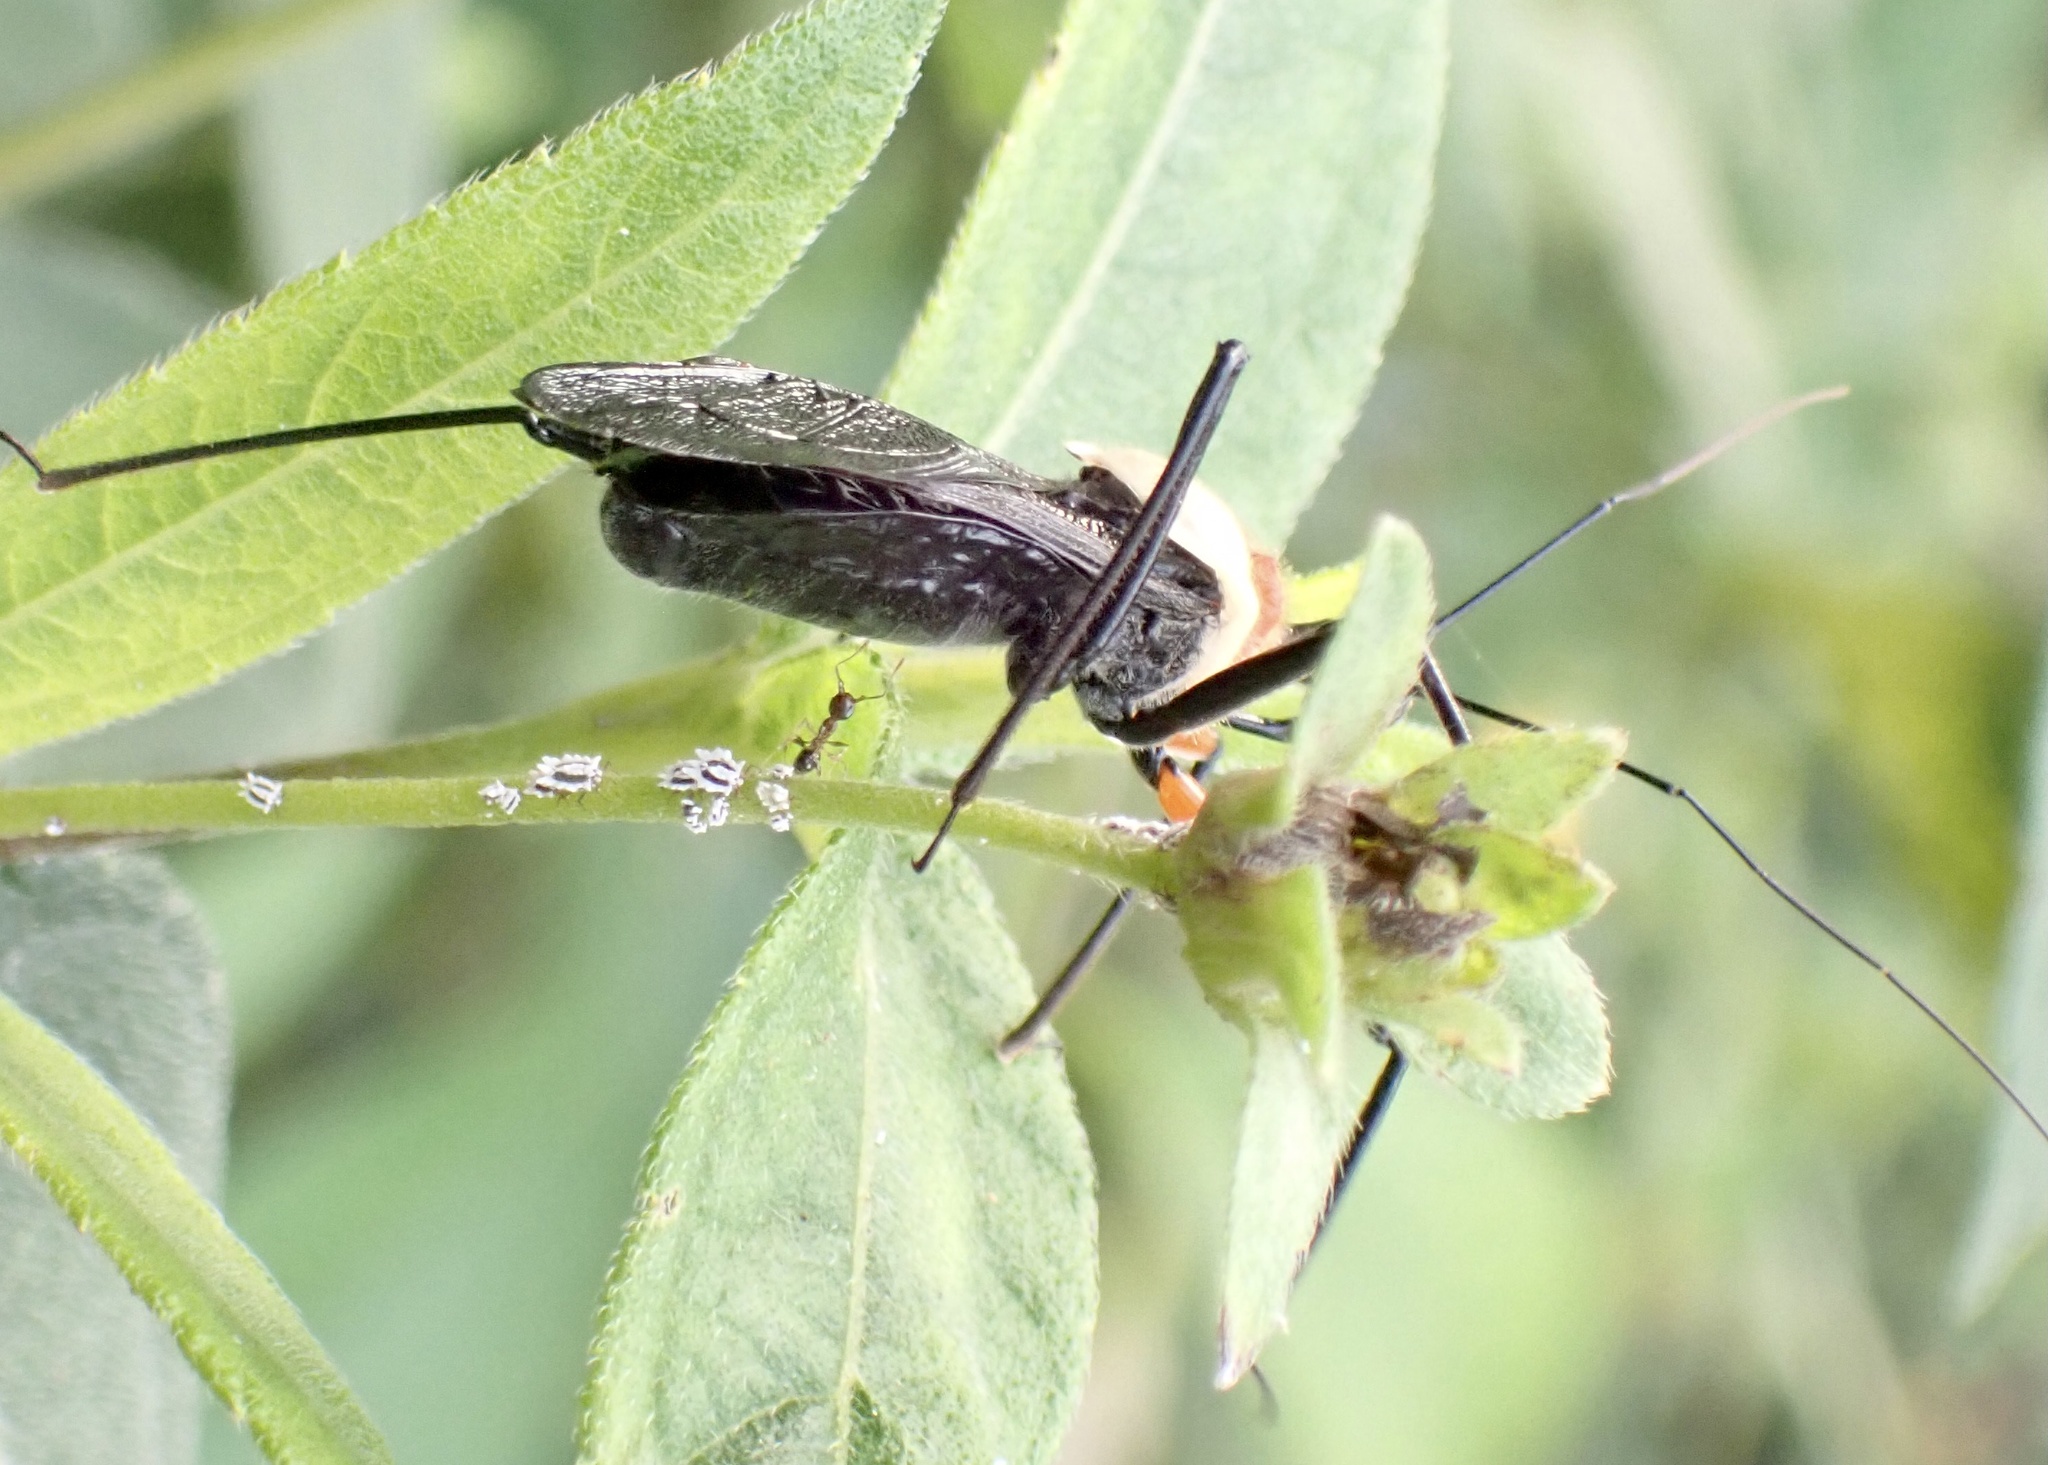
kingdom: Animalia
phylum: Arthropoda
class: Insecta
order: Hemiptera
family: Reduviidae
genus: Rhynocoris
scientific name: Rhynocoris nitidulus
